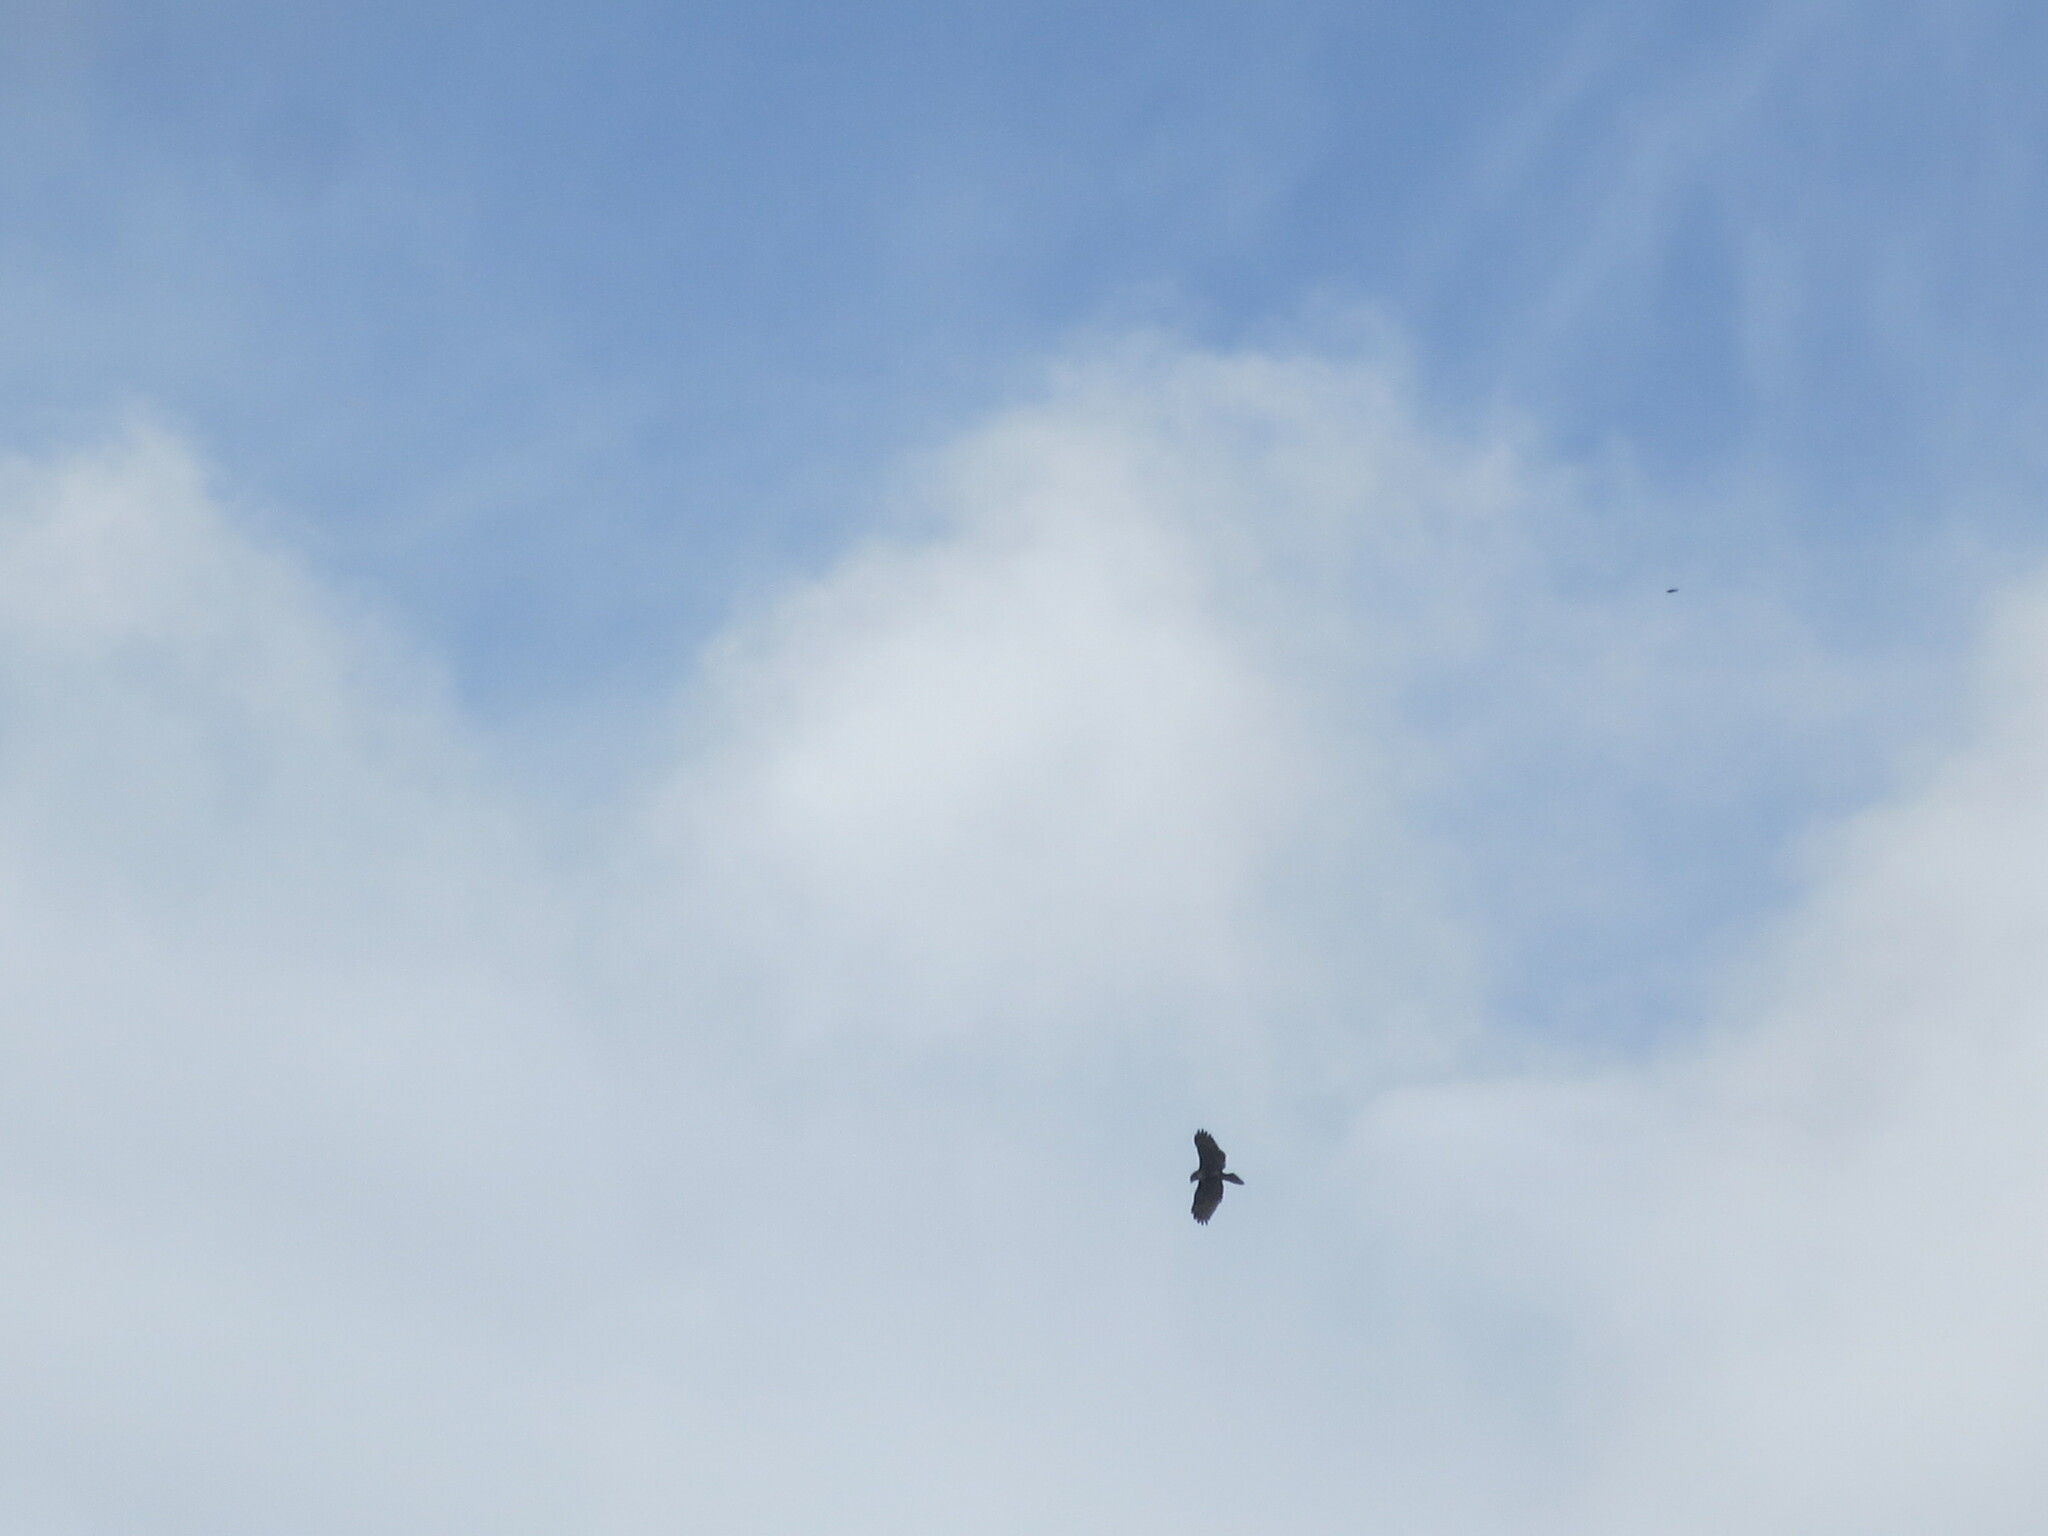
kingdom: Animalia
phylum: Chordata
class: Aves
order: Accipitriformes
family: Accipitridae
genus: Buteo
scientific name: Buteo jamaicensis
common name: Red-tailed hawk
